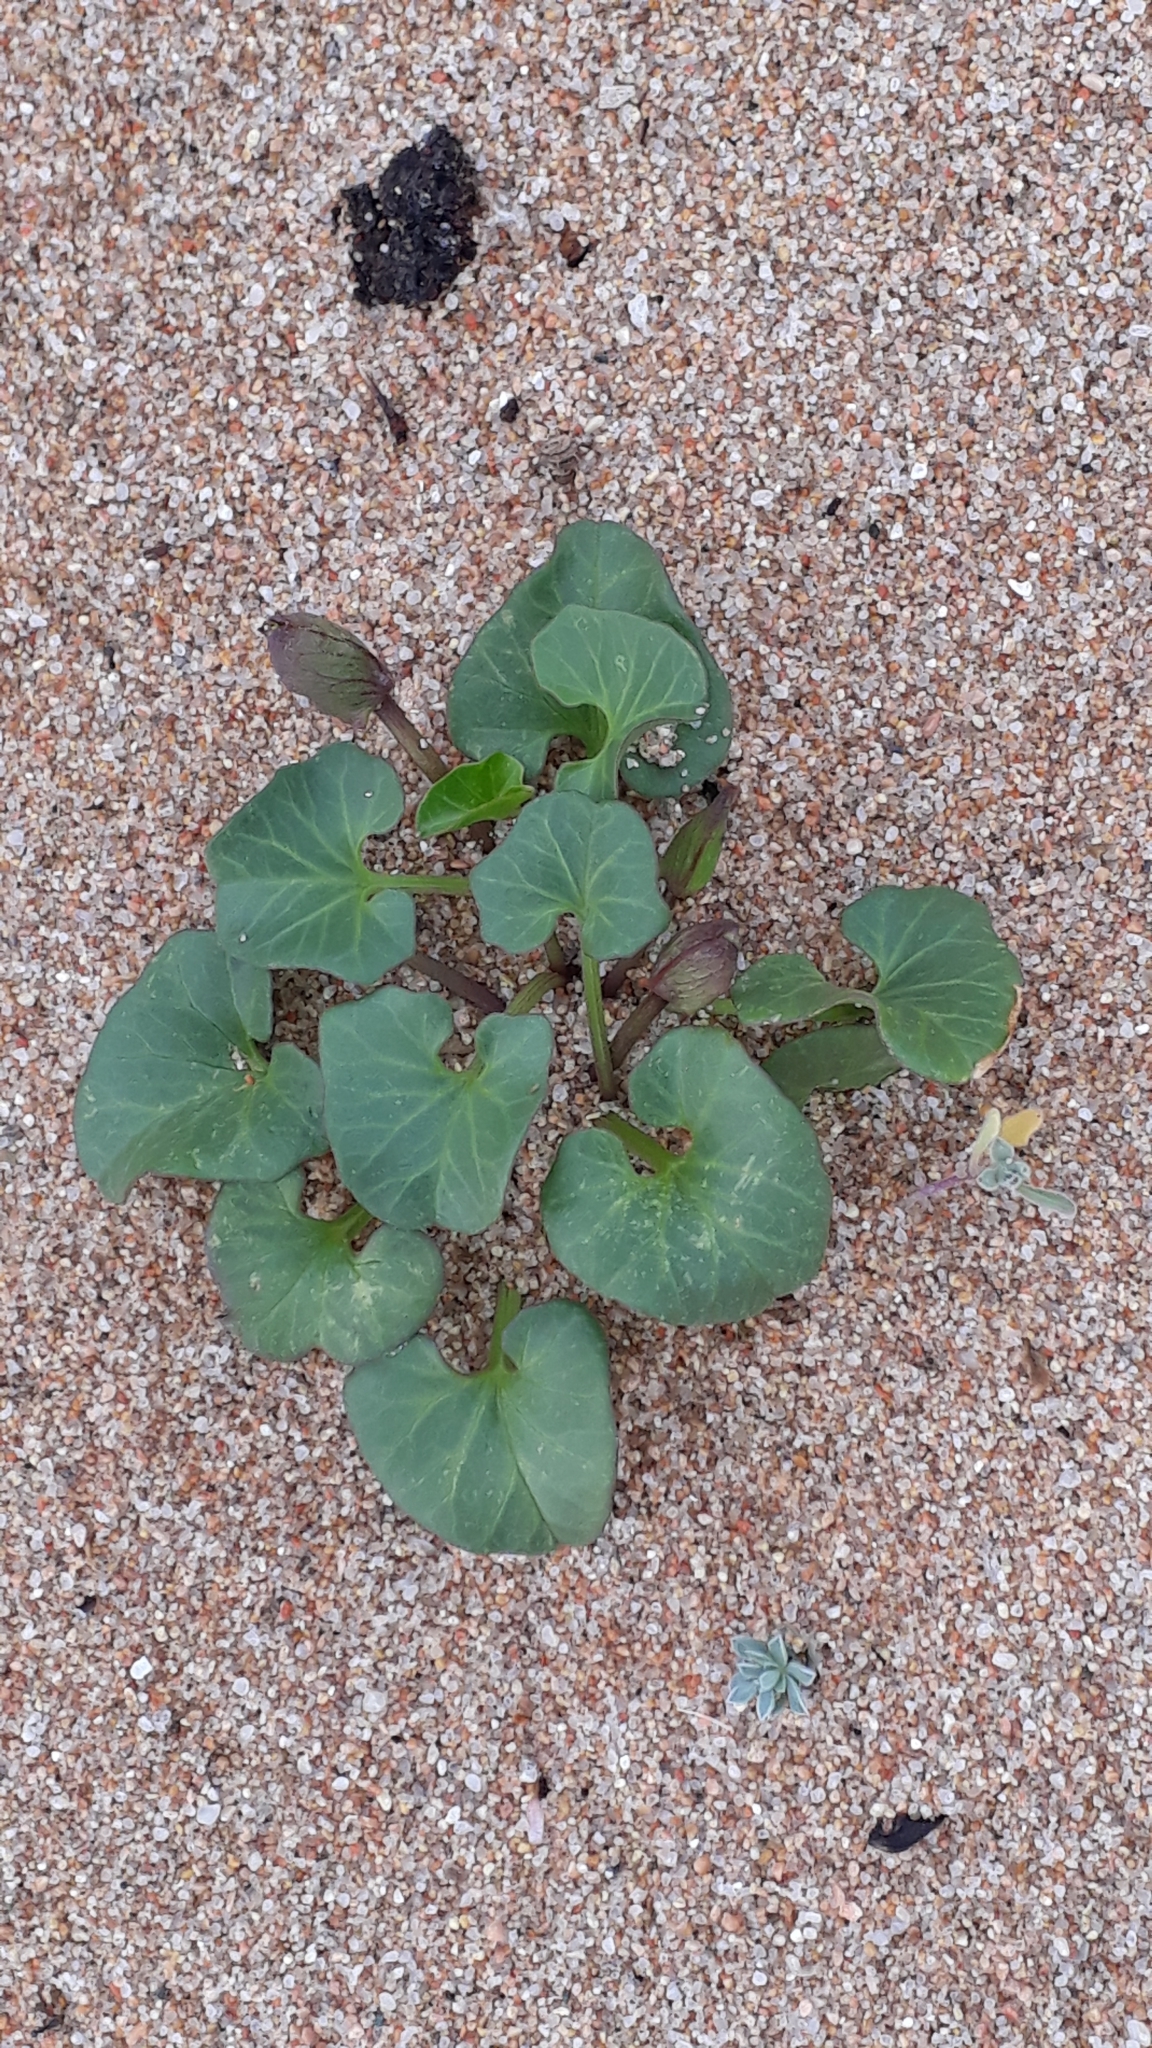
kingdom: Plantae
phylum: Tracheophyta
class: Magnoliopsida
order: Solanales
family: Convolvulaceae
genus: Calystegia
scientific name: Calystegia soldanella
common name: Sea bindweed
